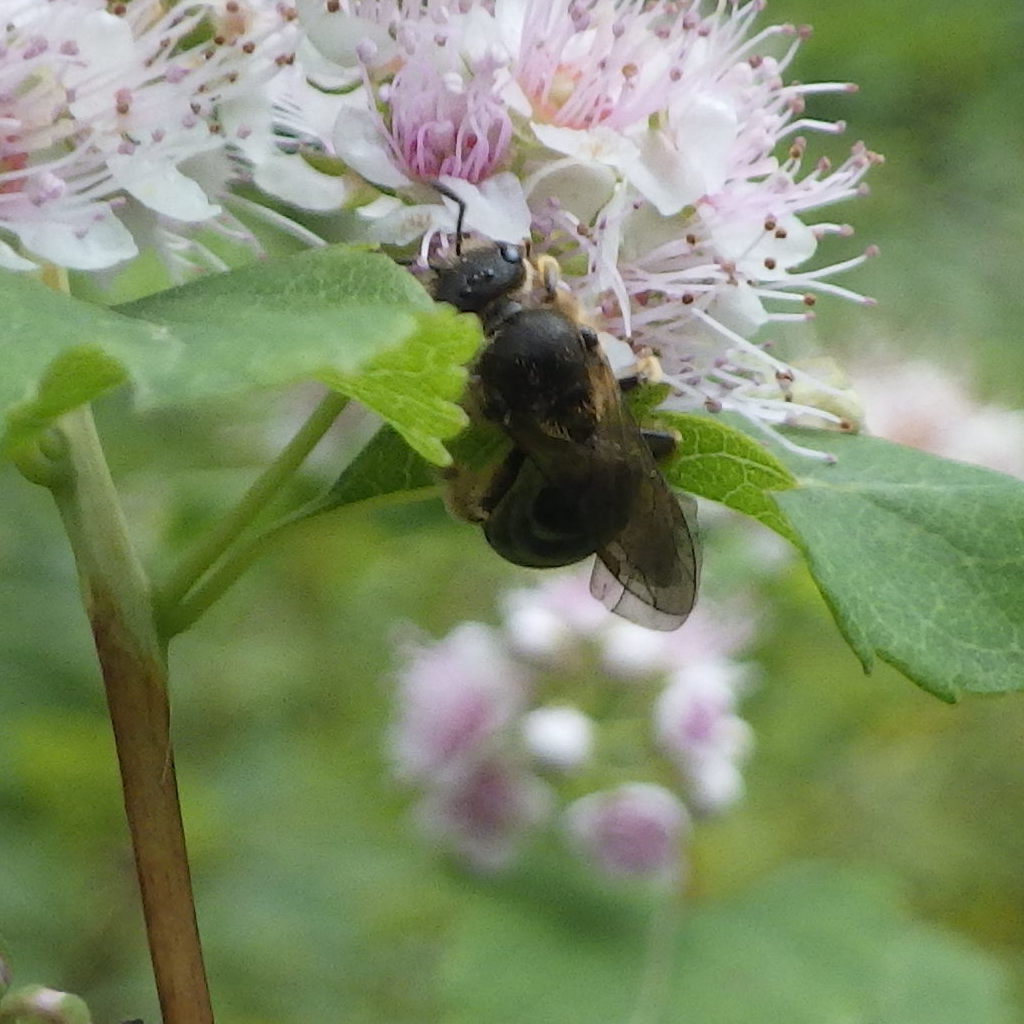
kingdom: Animalia
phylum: Arthropoda
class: Insecta
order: Hymenoptera
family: Halictidae
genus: Halictus
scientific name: Halictus rubicundus
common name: Orange-legged furrow bee
